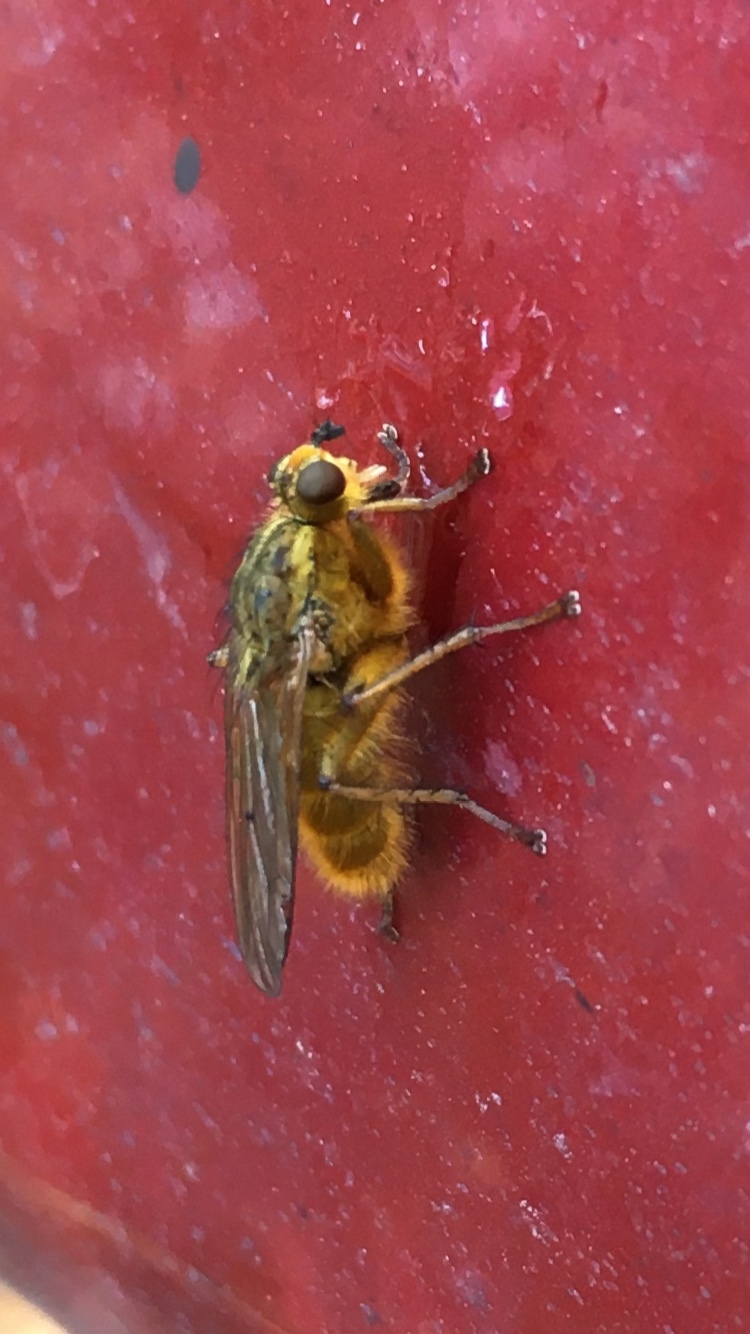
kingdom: Animalia
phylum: Arthropoda
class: Insecta
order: Diptera
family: Scathophagidae
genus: Scathophaga
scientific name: Scathophaga stercoraria
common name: Yellow dung fly
